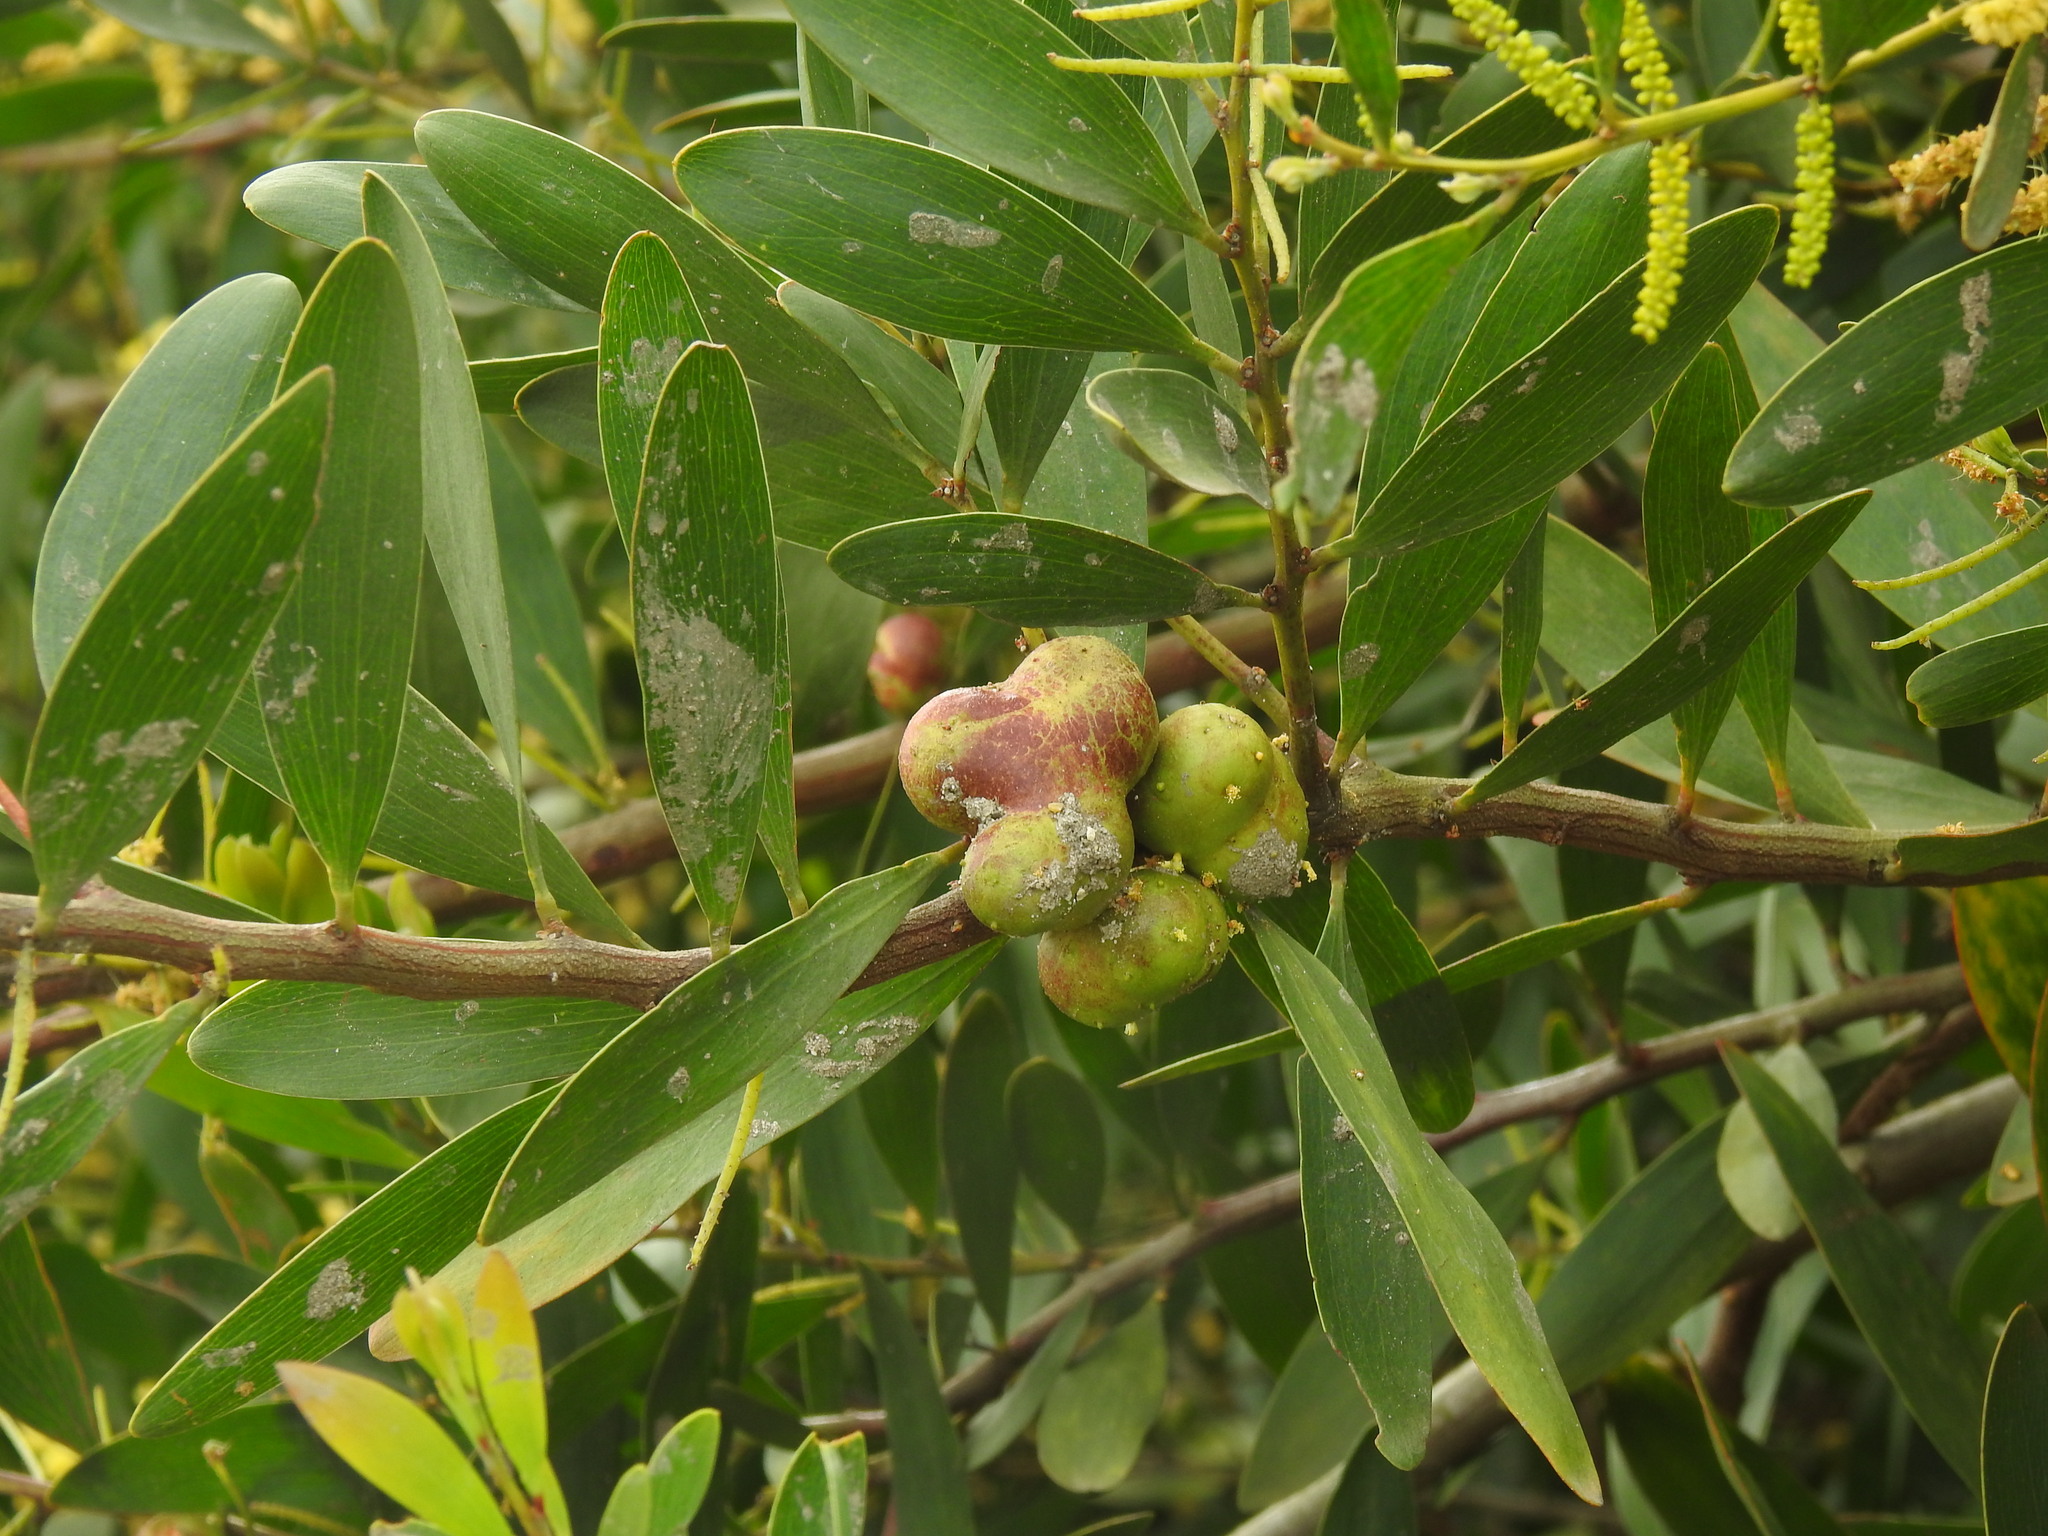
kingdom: Animalia
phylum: Arthropoda
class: Insecta
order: Hymenoptera
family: Pteromalidae
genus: Trichilogaster
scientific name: Trichilogaster acaciaelongifoliae
